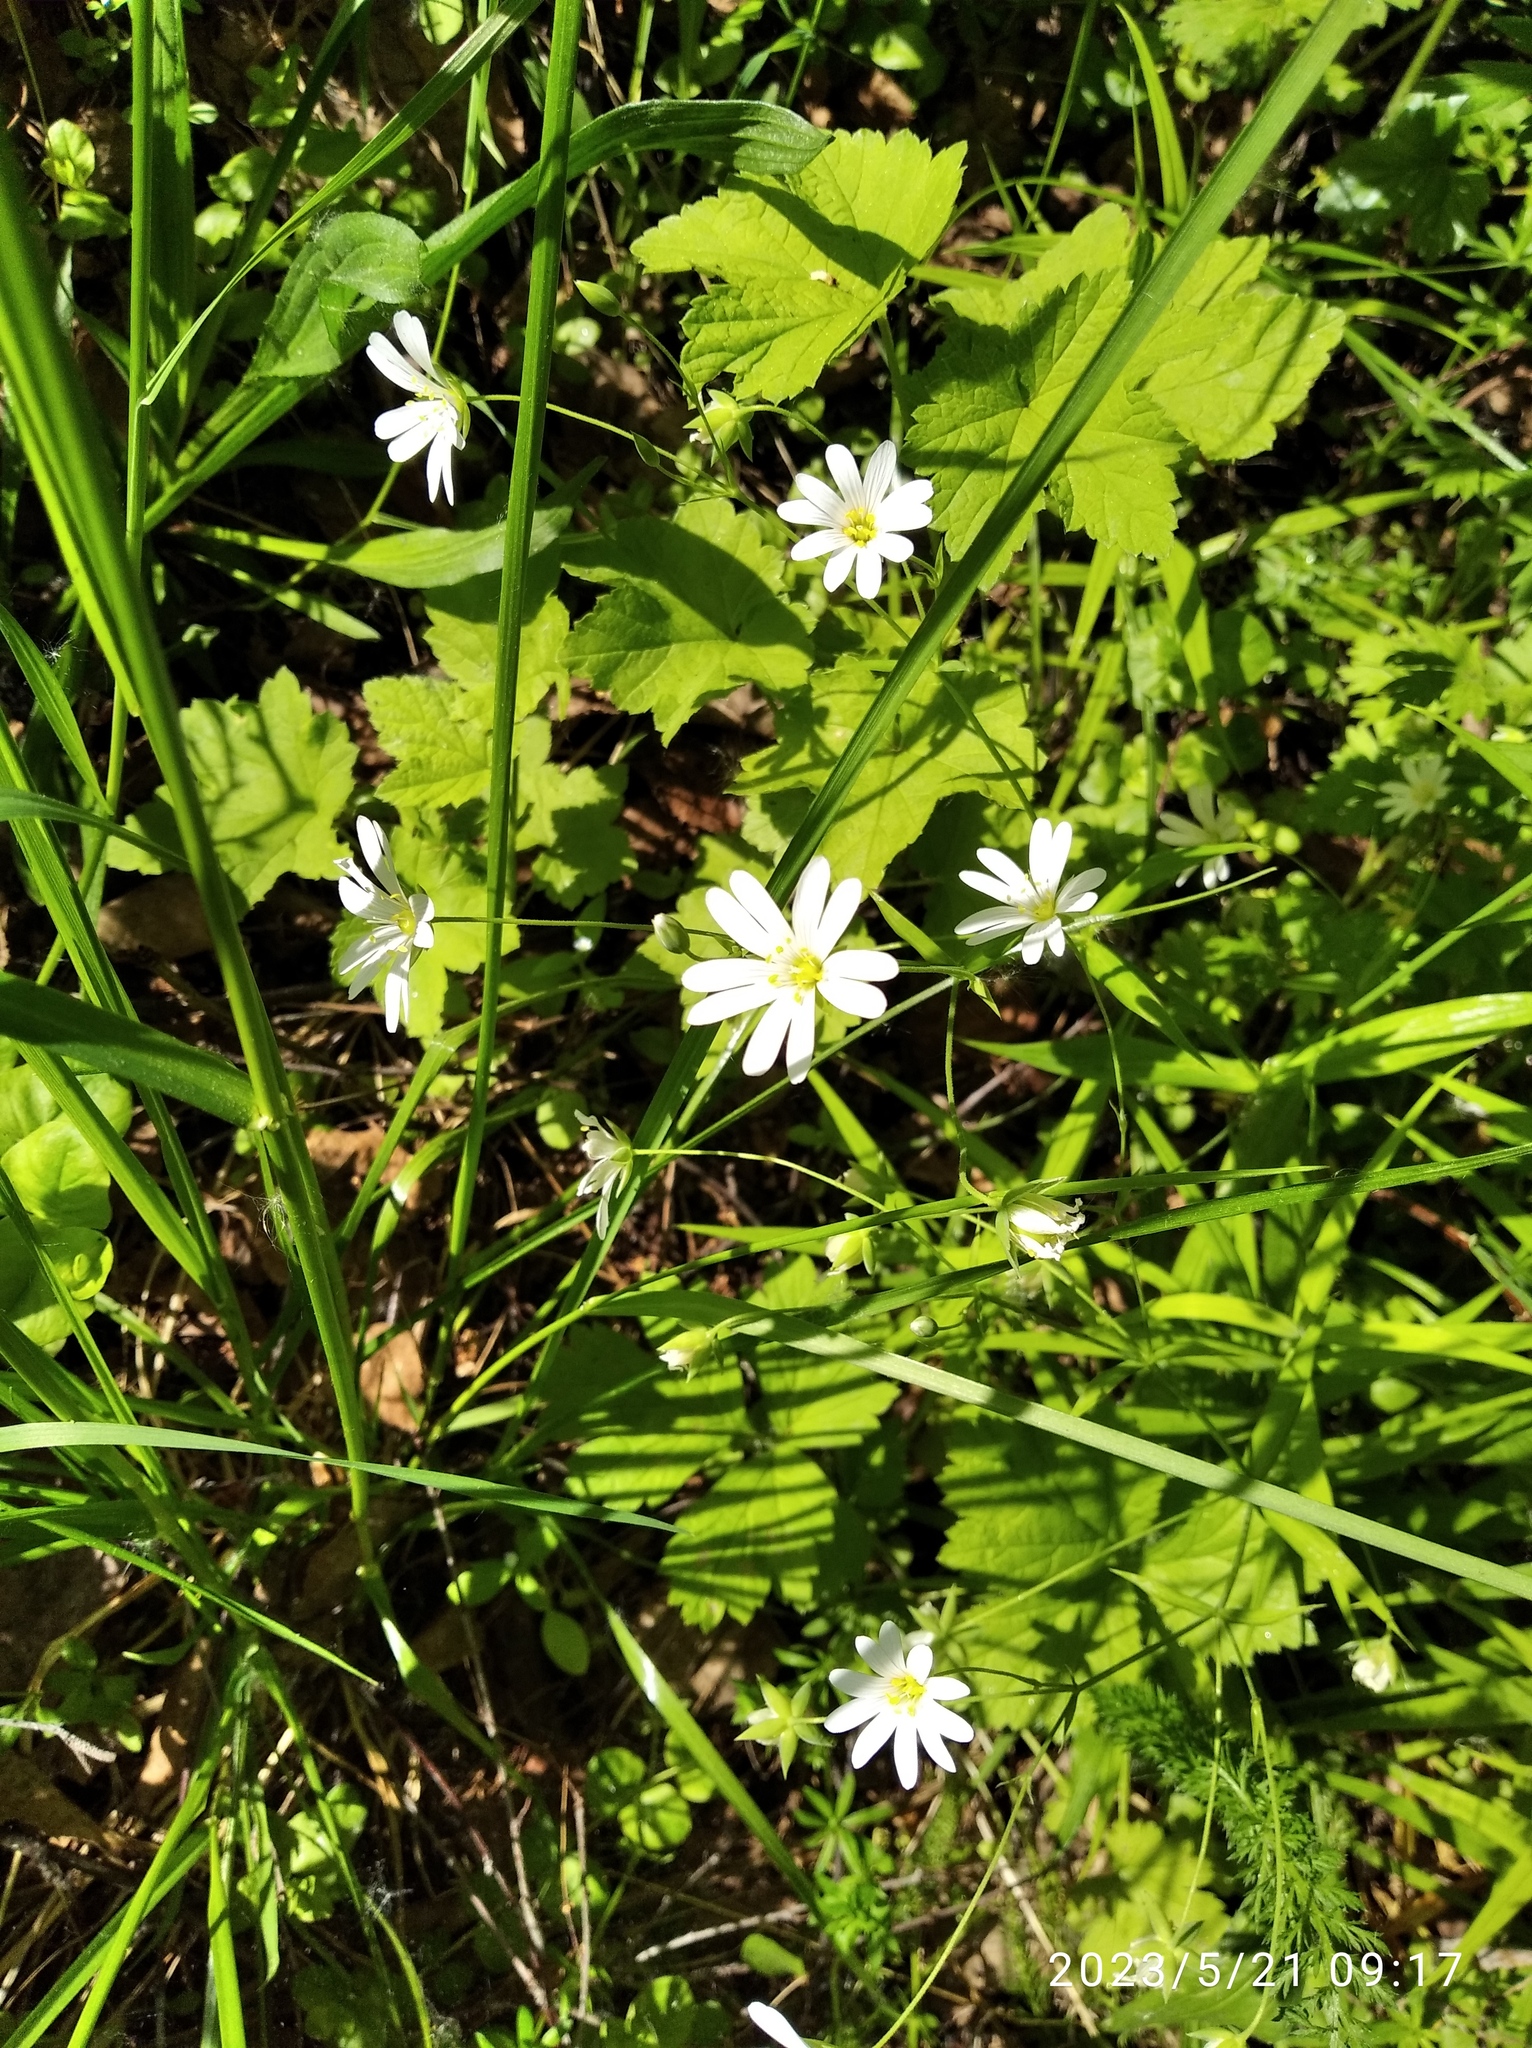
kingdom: Plantae
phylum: Tracheophyta
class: Magnoliopsida
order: Caryophyllales
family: Caryophyllaceae
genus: Rabelera
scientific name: Rabelera holostea
